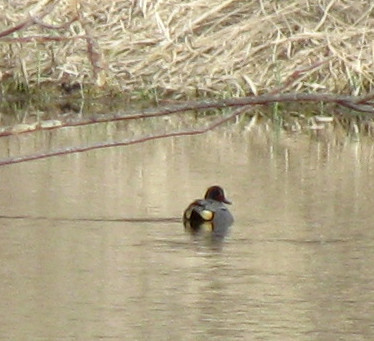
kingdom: Animalia
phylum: Chordata
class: Aves
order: Anseriformes
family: Anatidae
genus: Anas
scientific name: Anas crecca
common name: Eurasian teal
